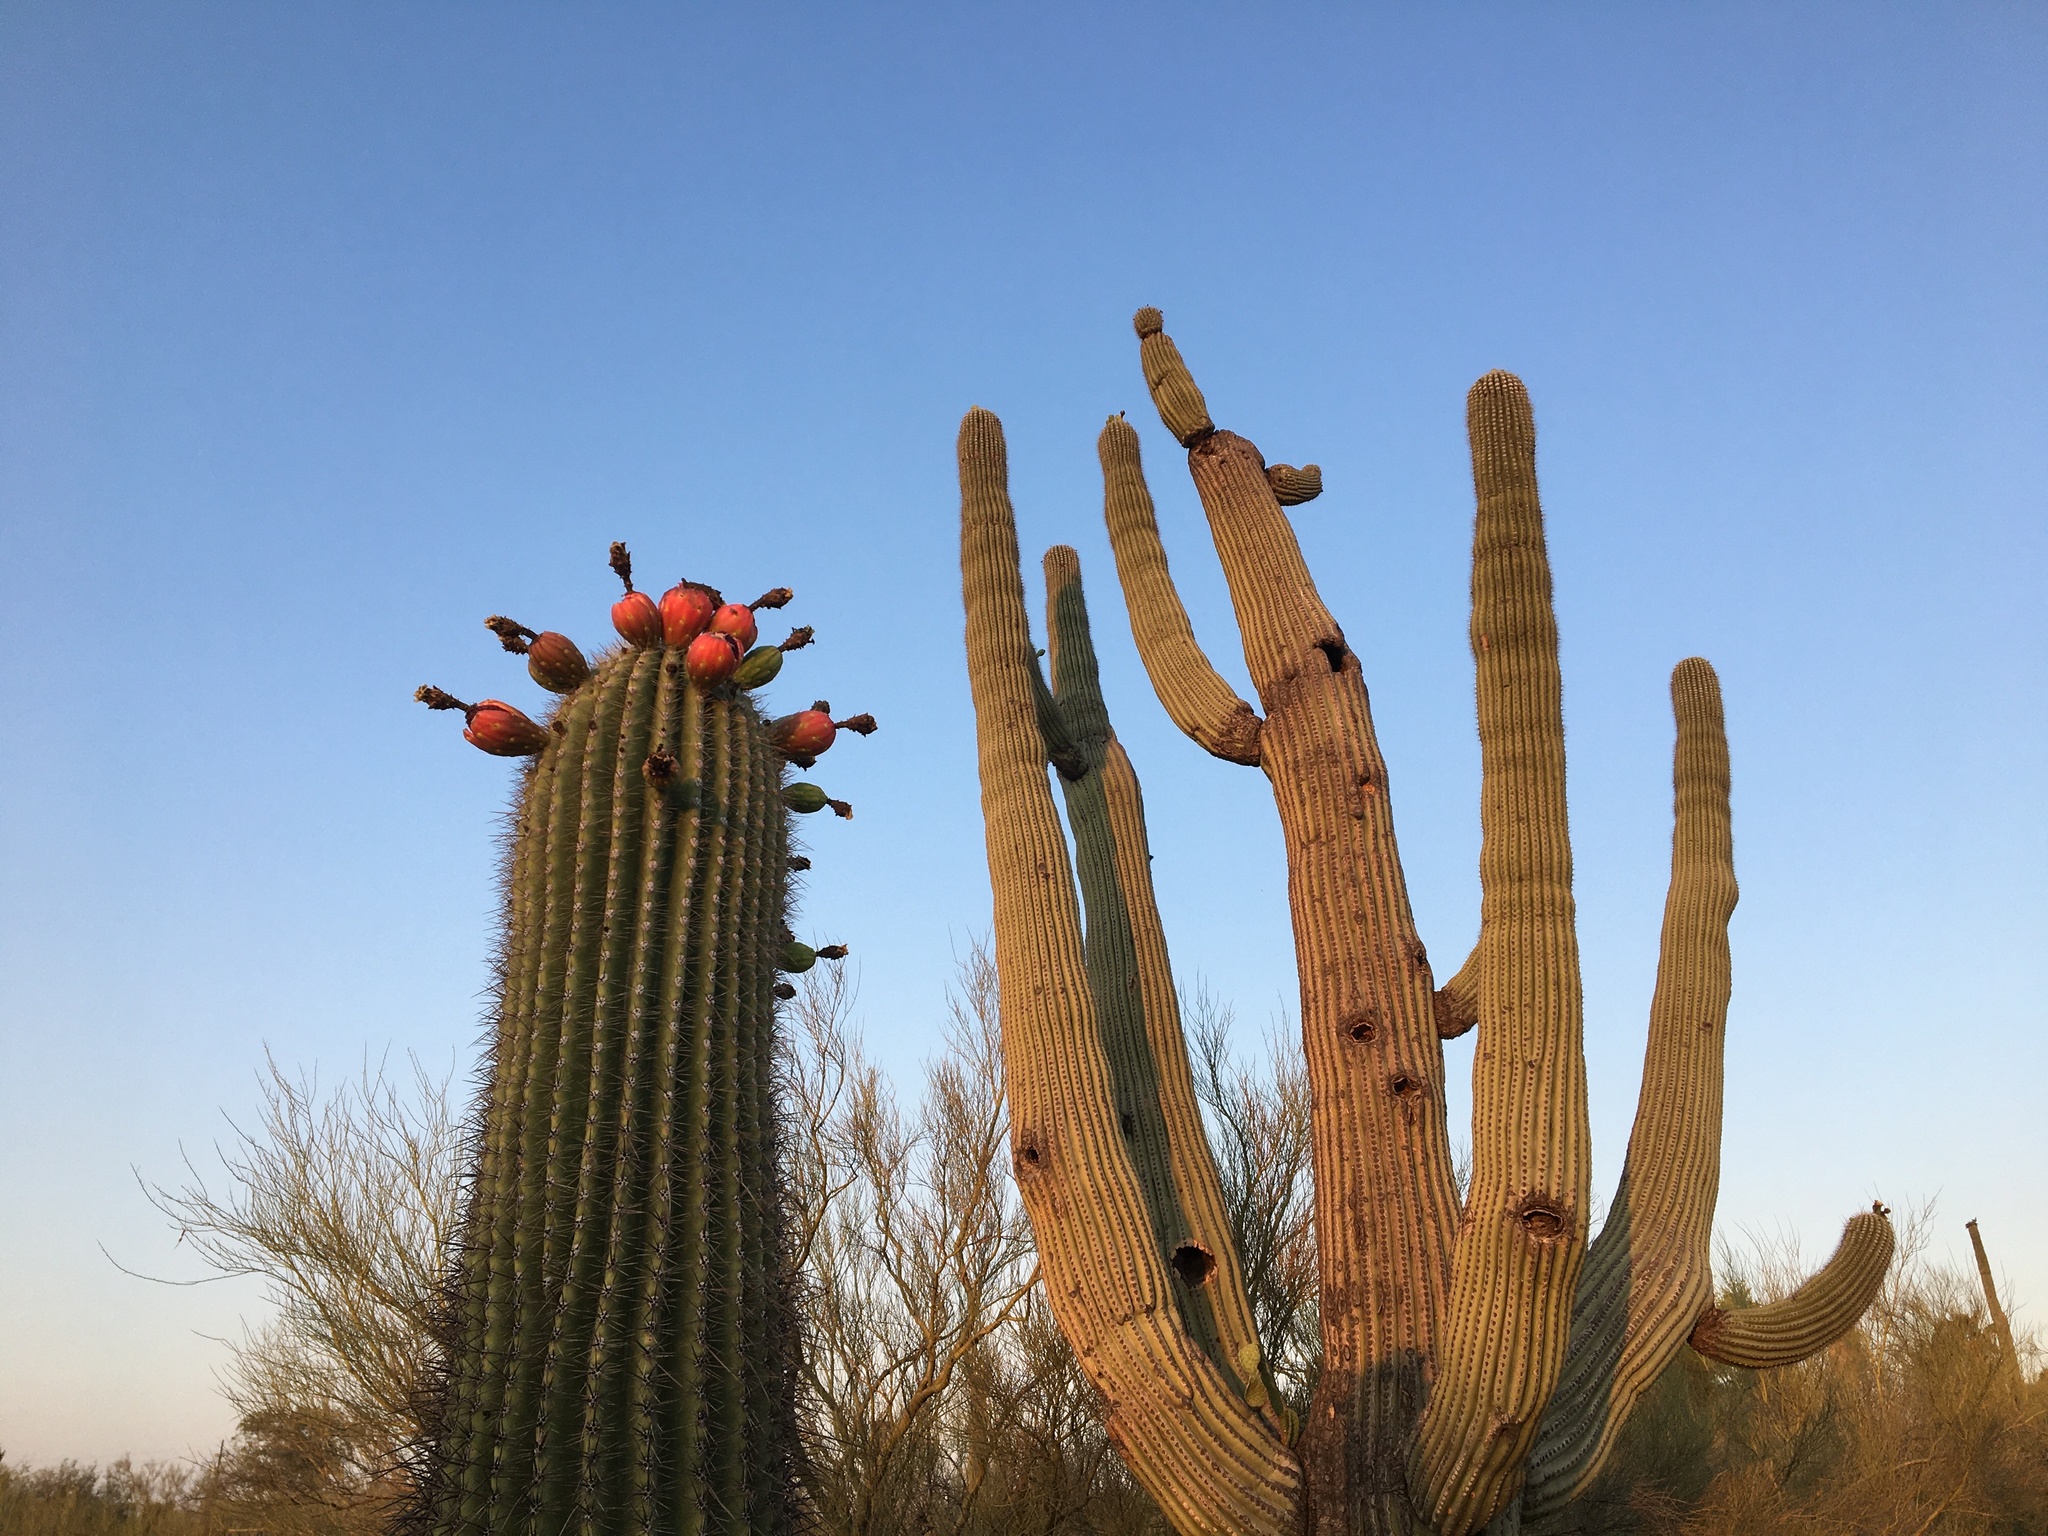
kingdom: Plantae
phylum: Tracheophyta
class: Magnoliopsida
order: Caryophyllales
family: Cactaceae
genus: Carnegiea
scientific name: Carnegiea gigantea
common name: Saguaro
